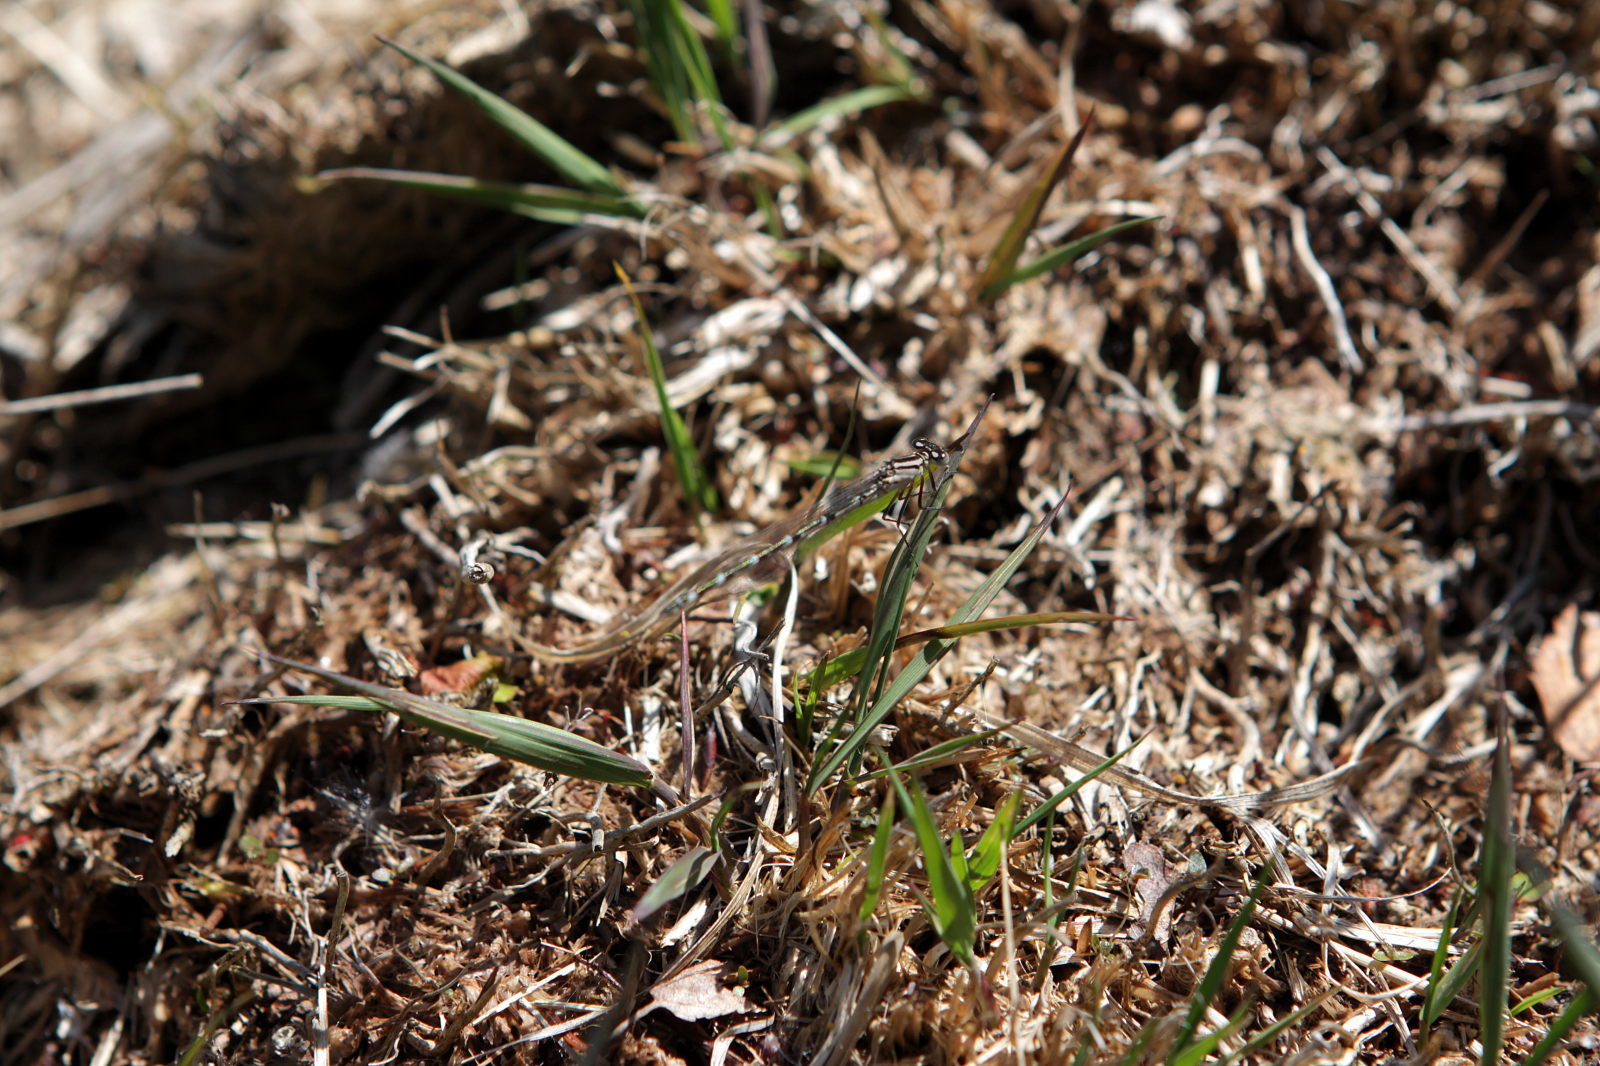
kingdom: Animalia
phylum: Arthropoda
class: Insecta
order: Odonata
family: Coenagrionidae
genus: Enallagma
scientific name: Enallagma cyathigerum
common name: Common blue damselfly
